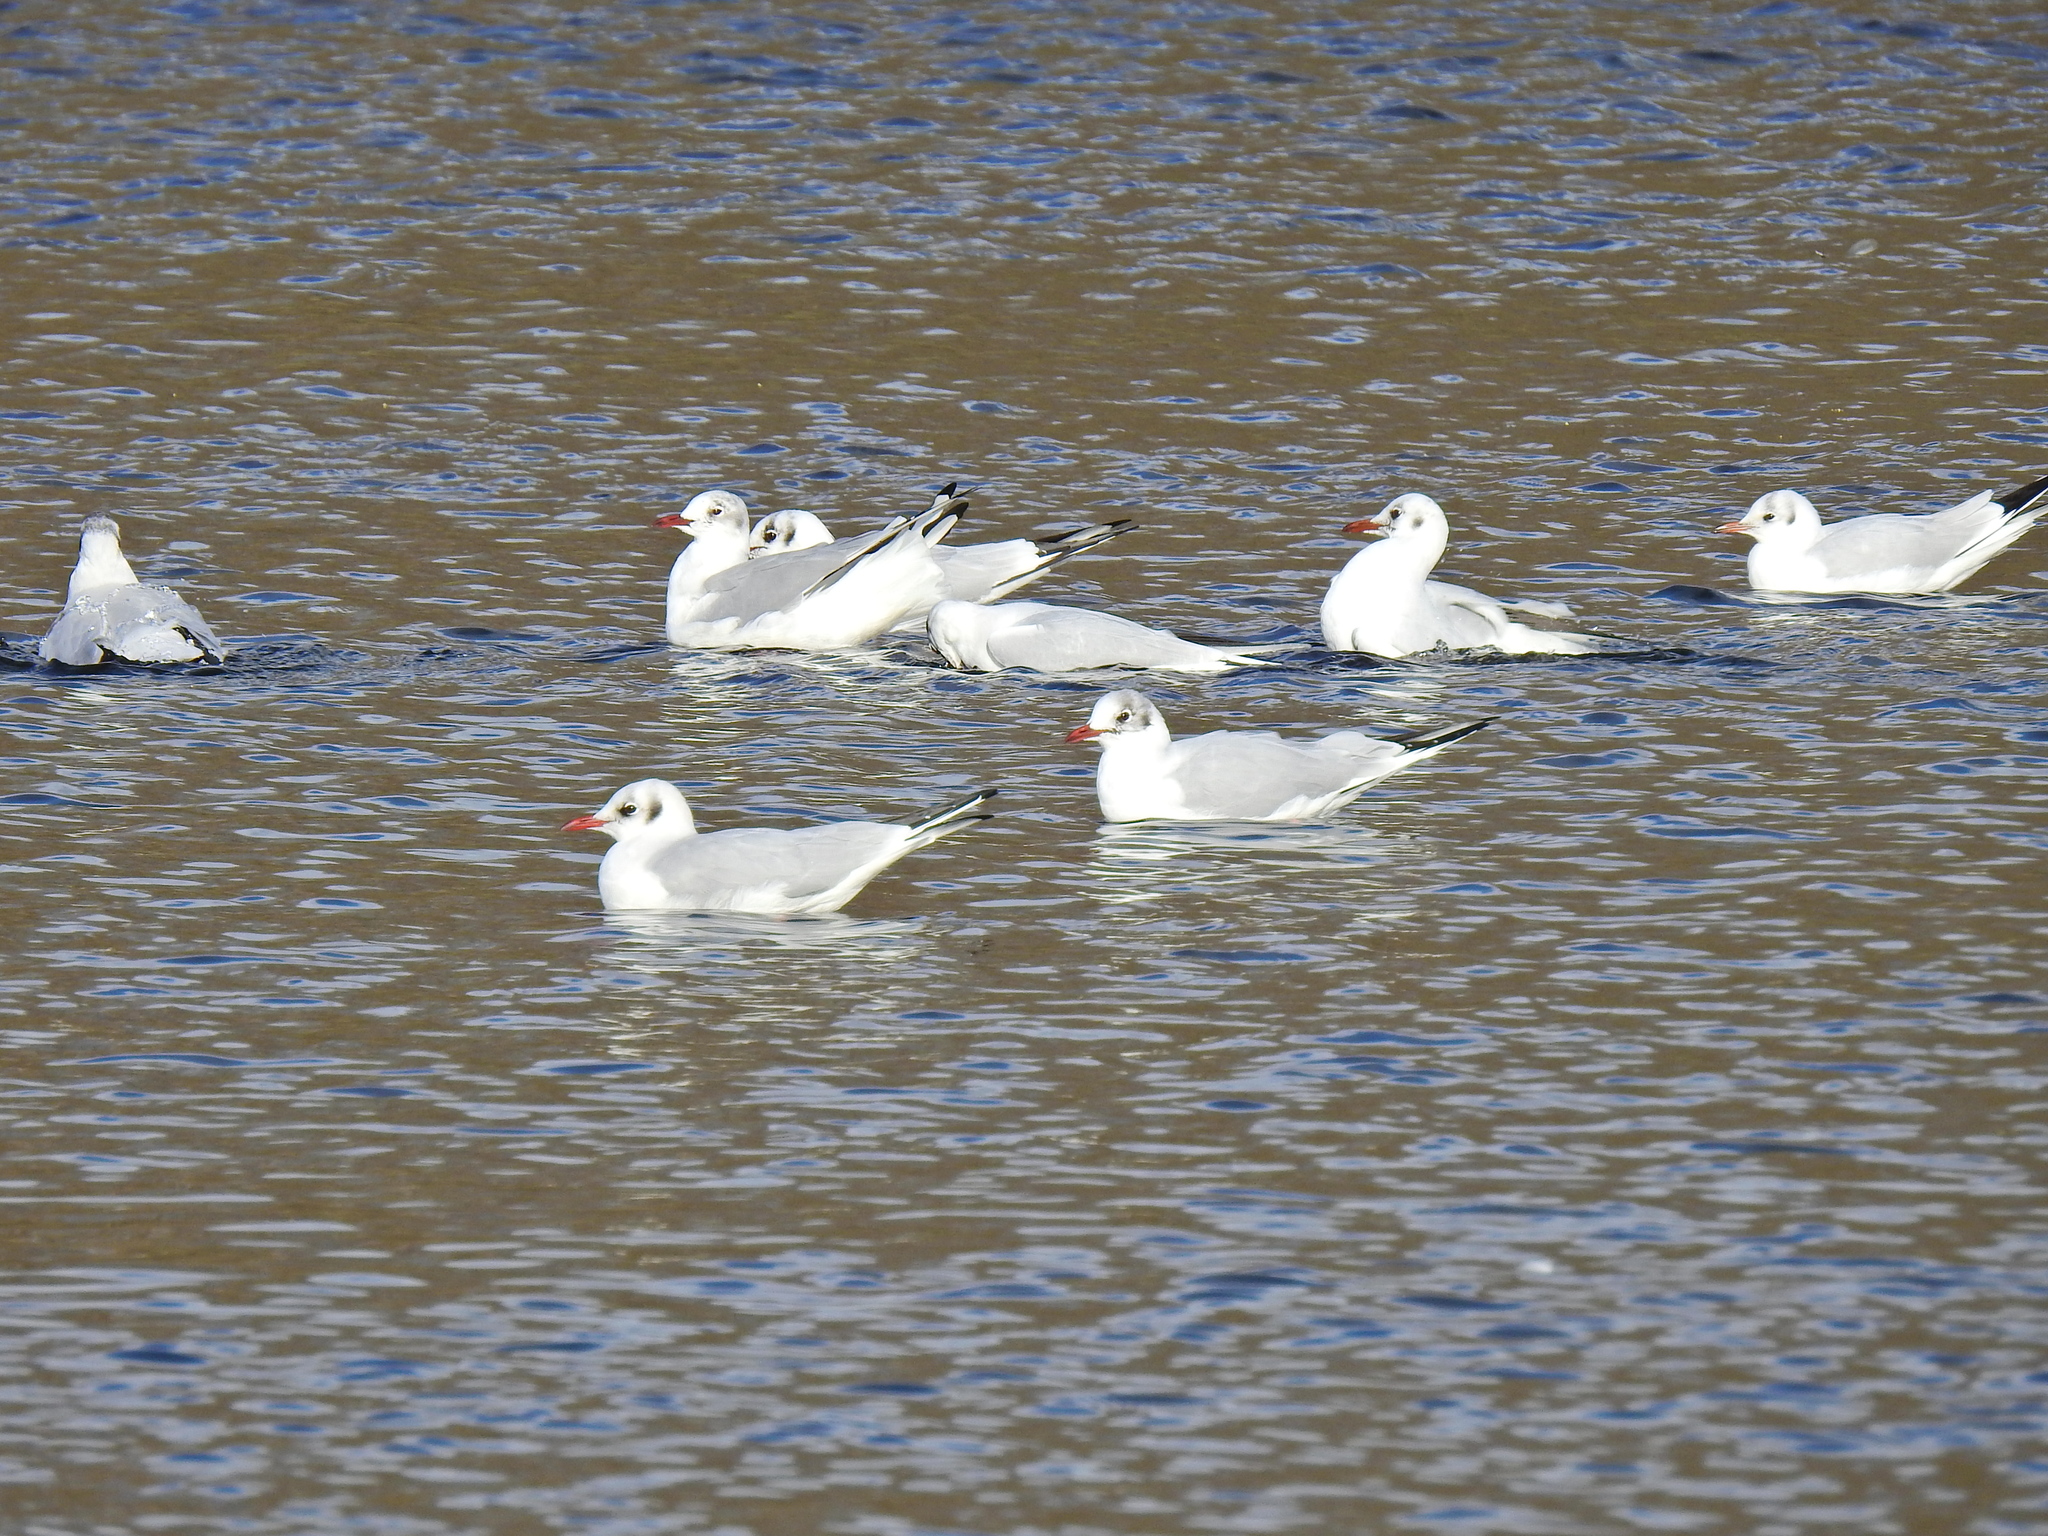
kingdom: Animalia
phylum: Chordata
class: Aves
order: Charadriiformes
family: Laridae
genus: Chroicocephalus
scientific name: Chroicocephalus ridibundus
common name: Black-headed gull
